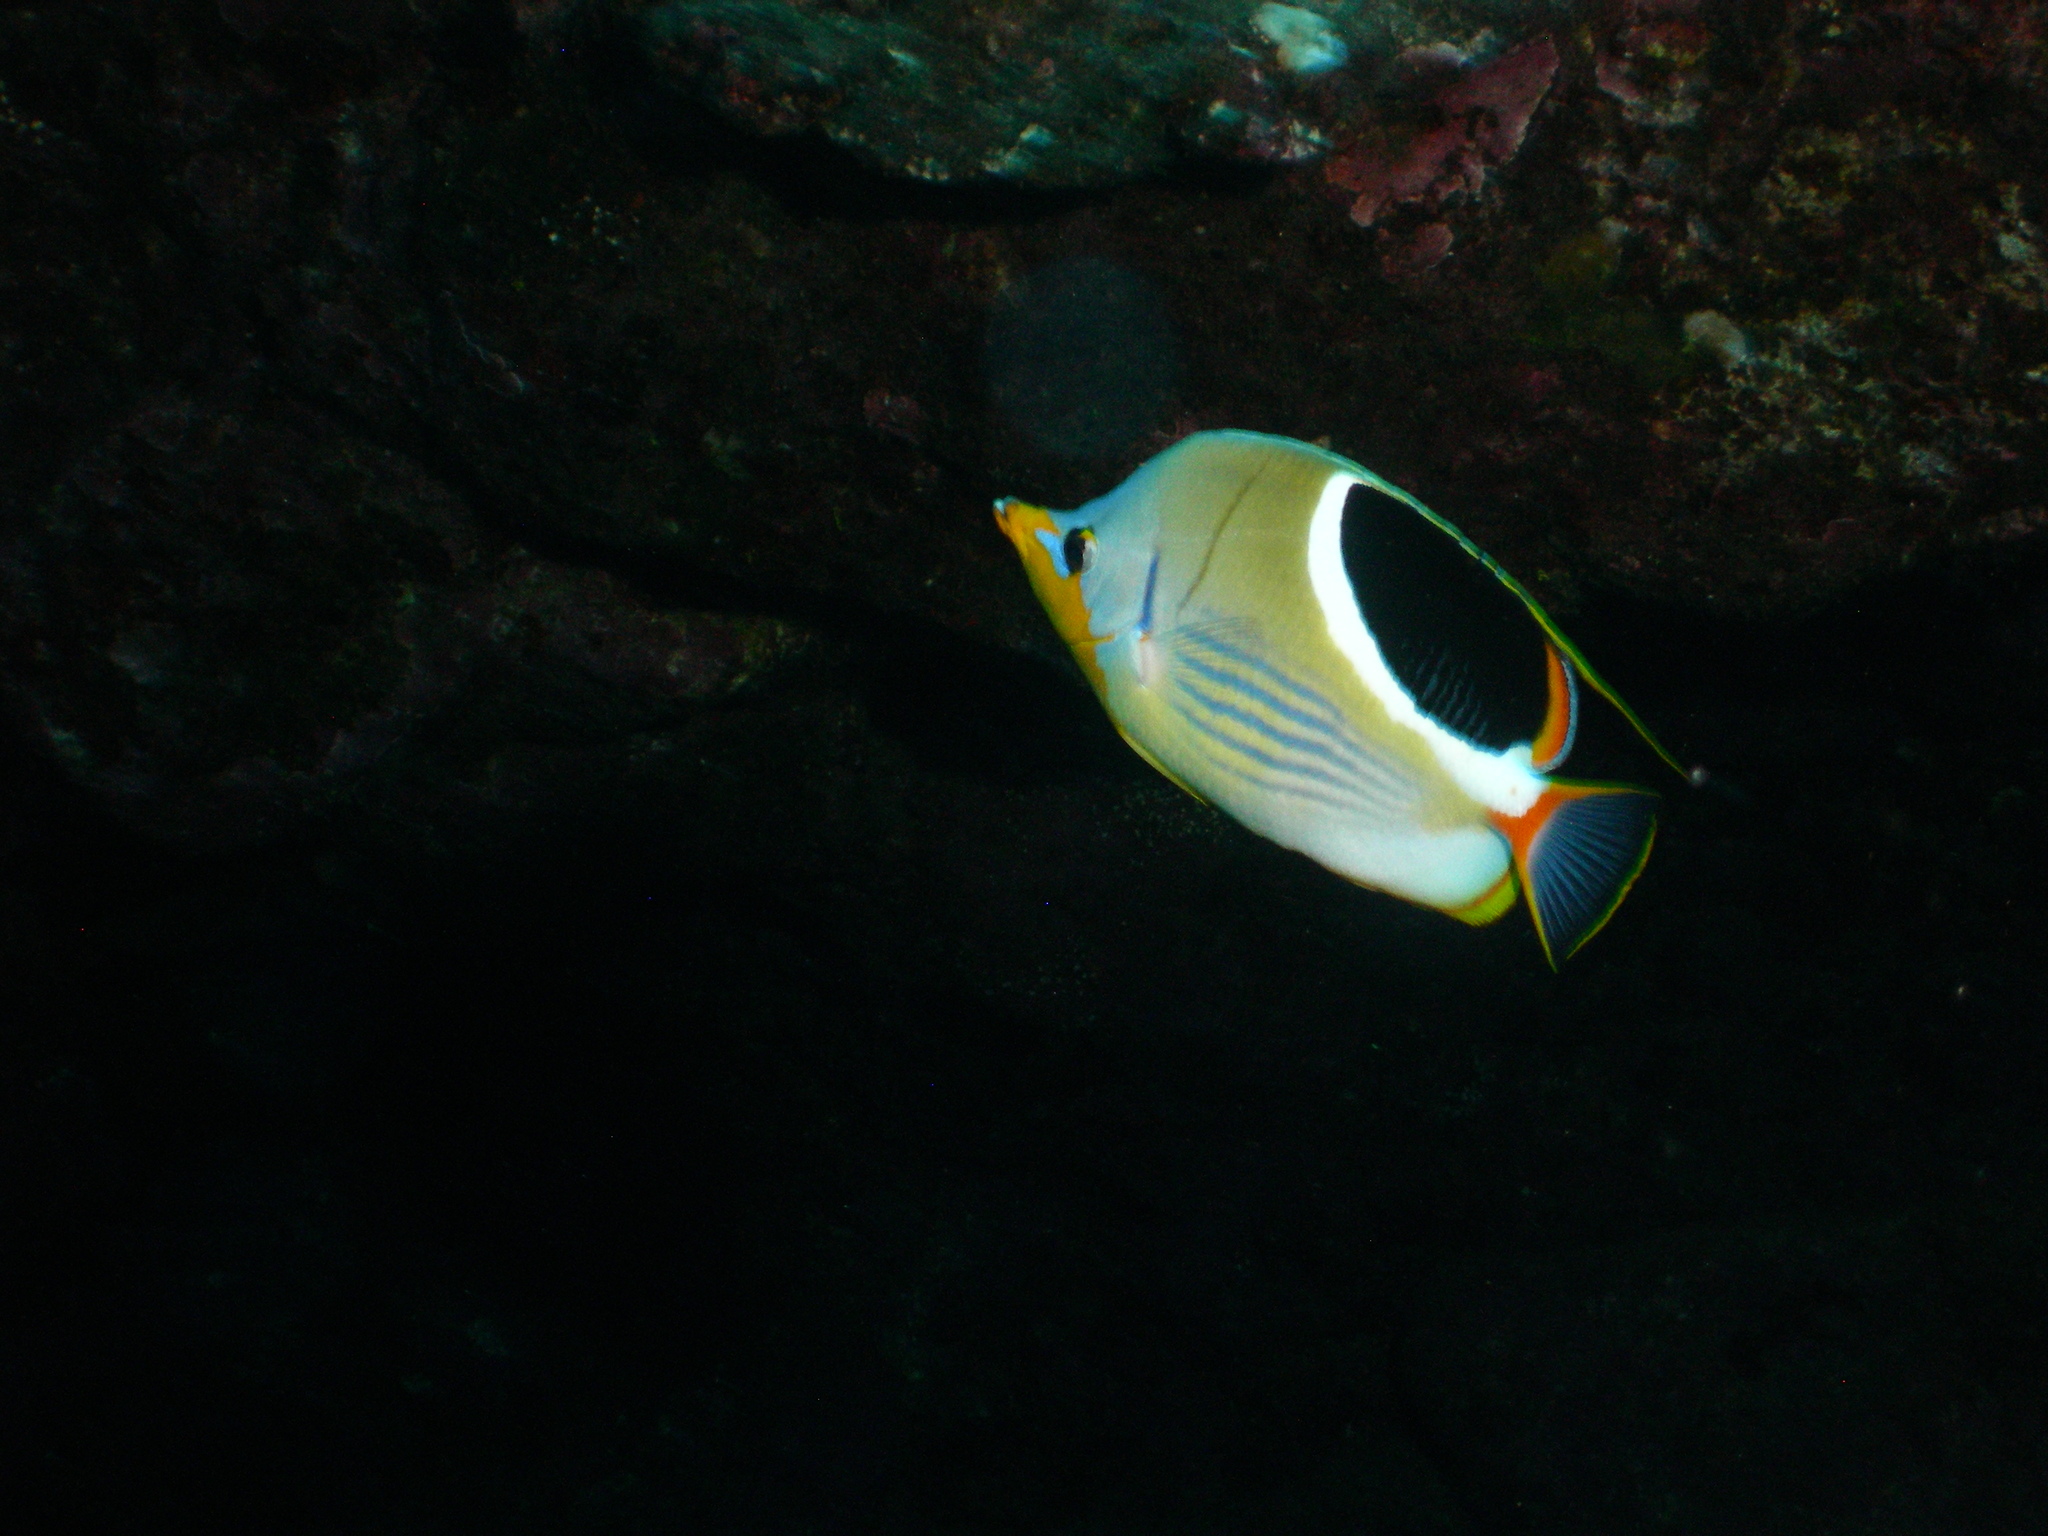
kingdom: Animalia
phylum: Chordata
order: Perciformes
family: Chaetodontidae
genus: Chaetodon
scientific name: Chaetodon ephippium
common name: Saddled butterflyfish
